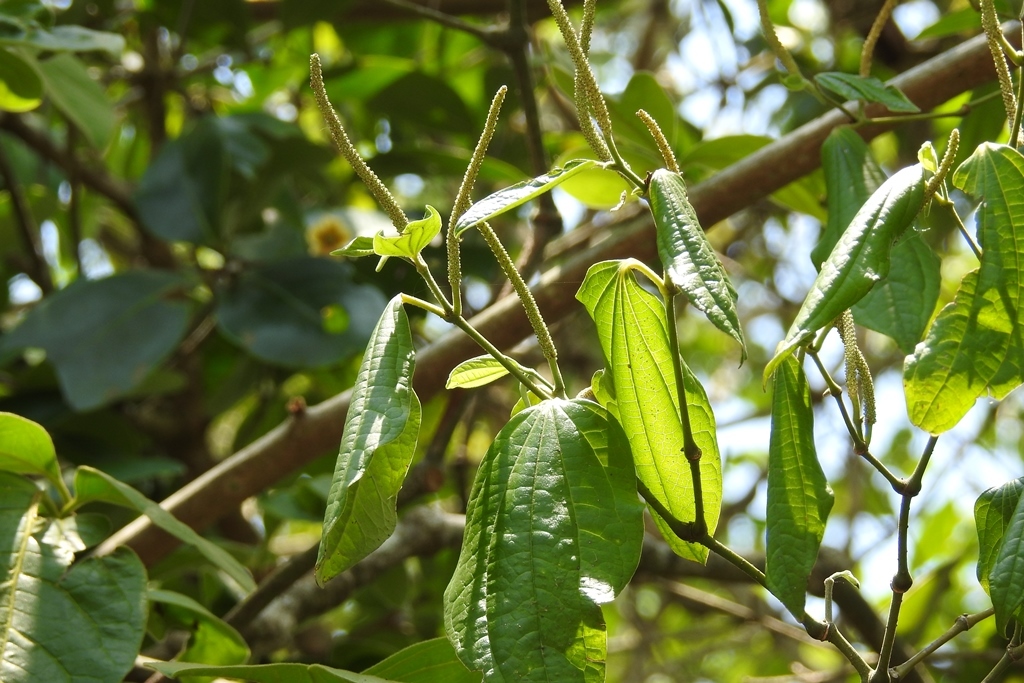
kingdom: Plantae
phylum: Tracheophyta
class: Magnoliopsida
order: Piperales
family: Piperaceae
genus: Piper
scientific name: Piper jacquemontianum
